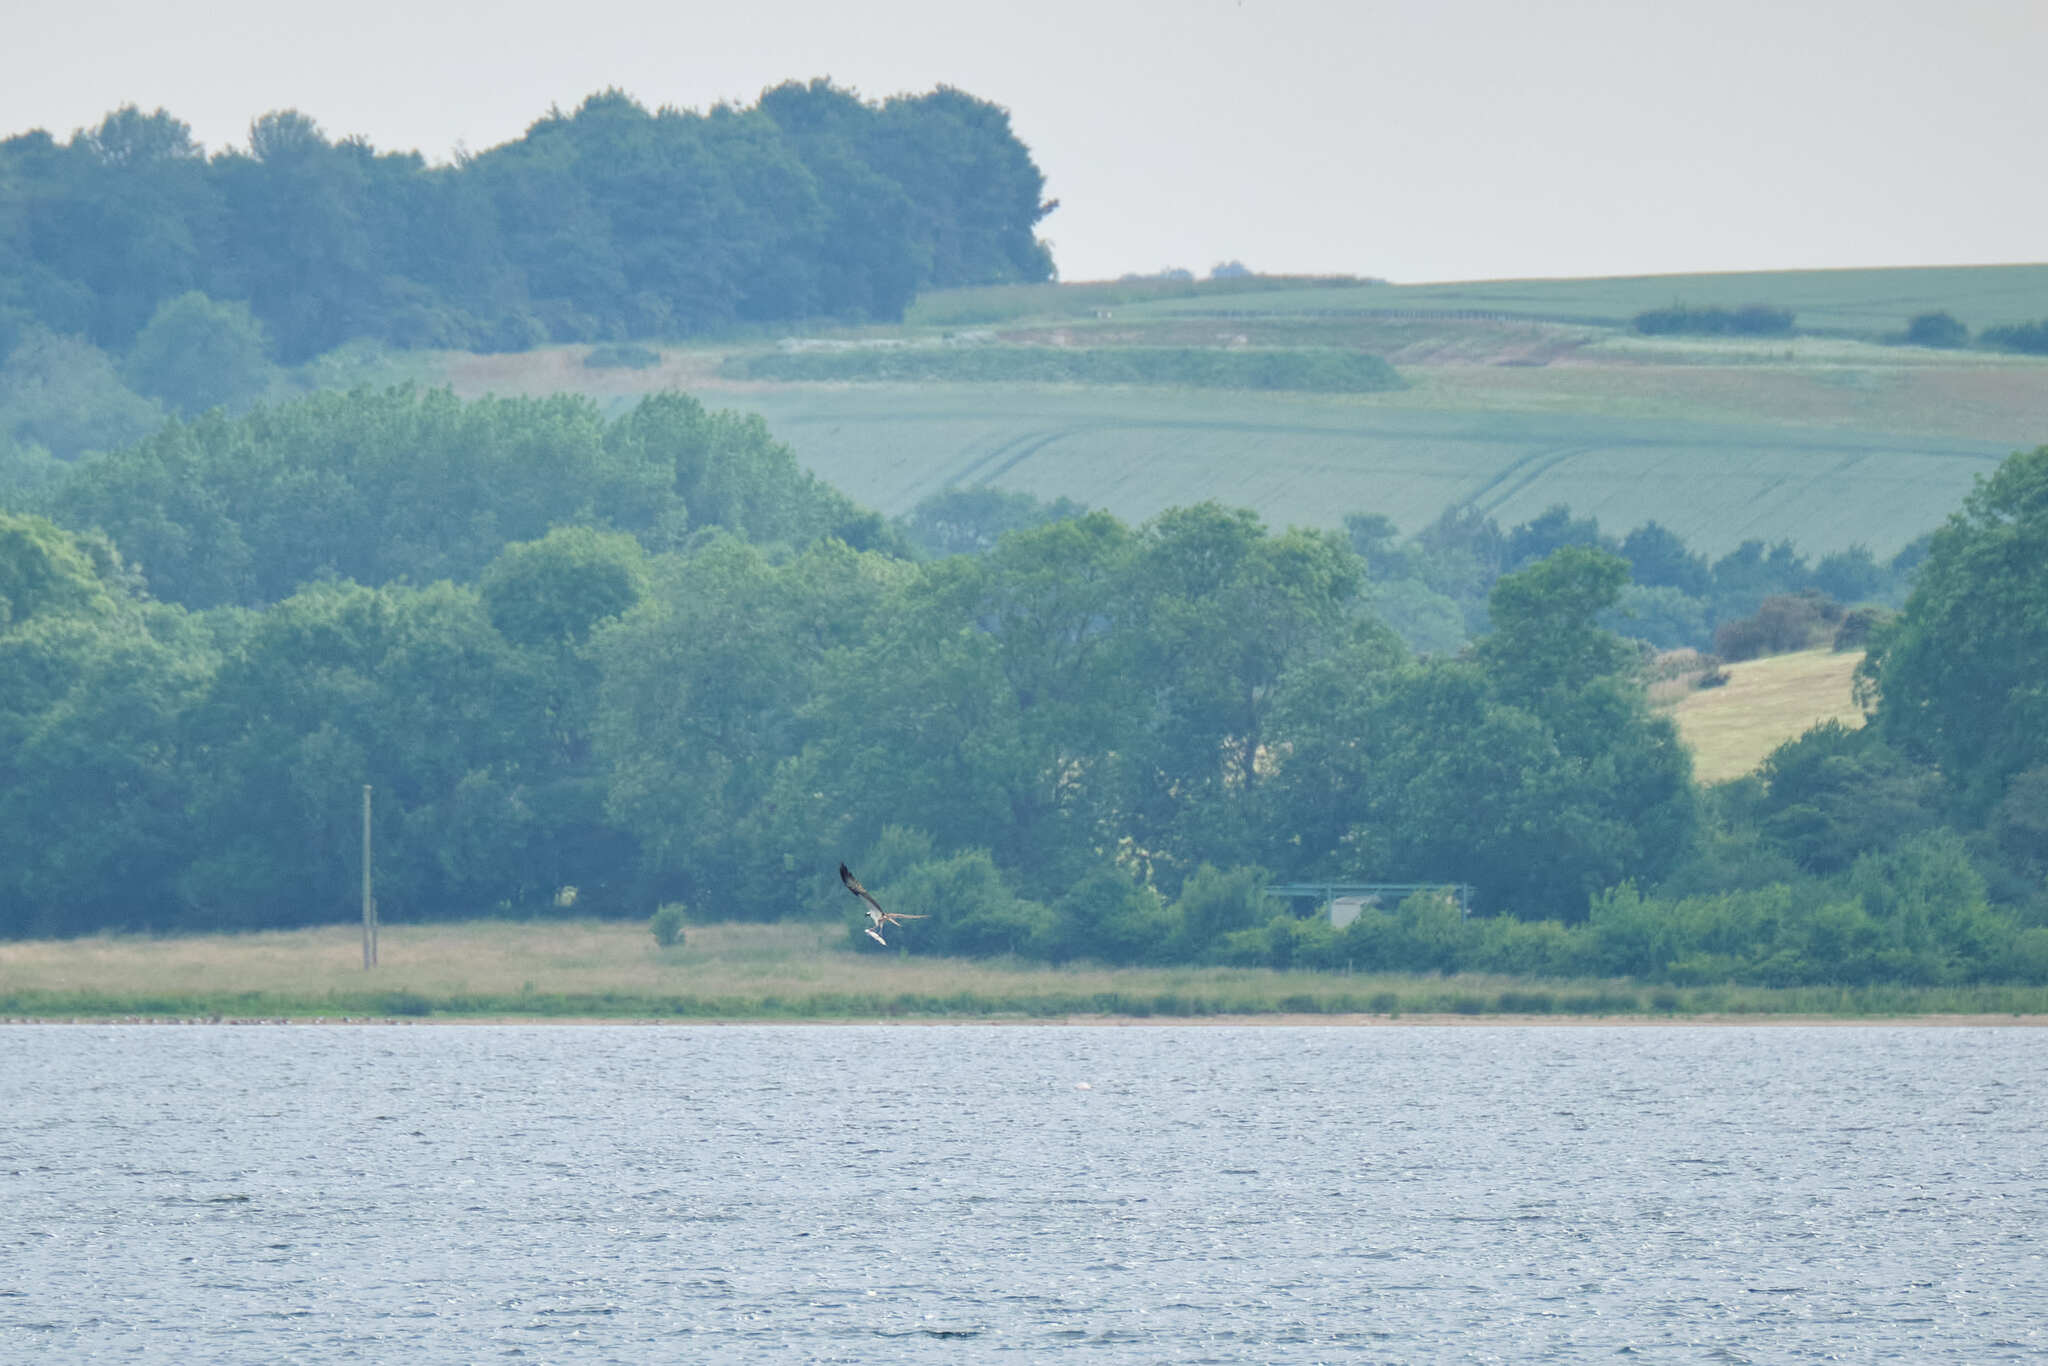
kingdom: Animalia
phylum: Chordata
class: Aves
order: Accipitriformes
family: Pandionidae
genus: Pandion
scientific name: Pandion haliaetus
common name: Osprey
